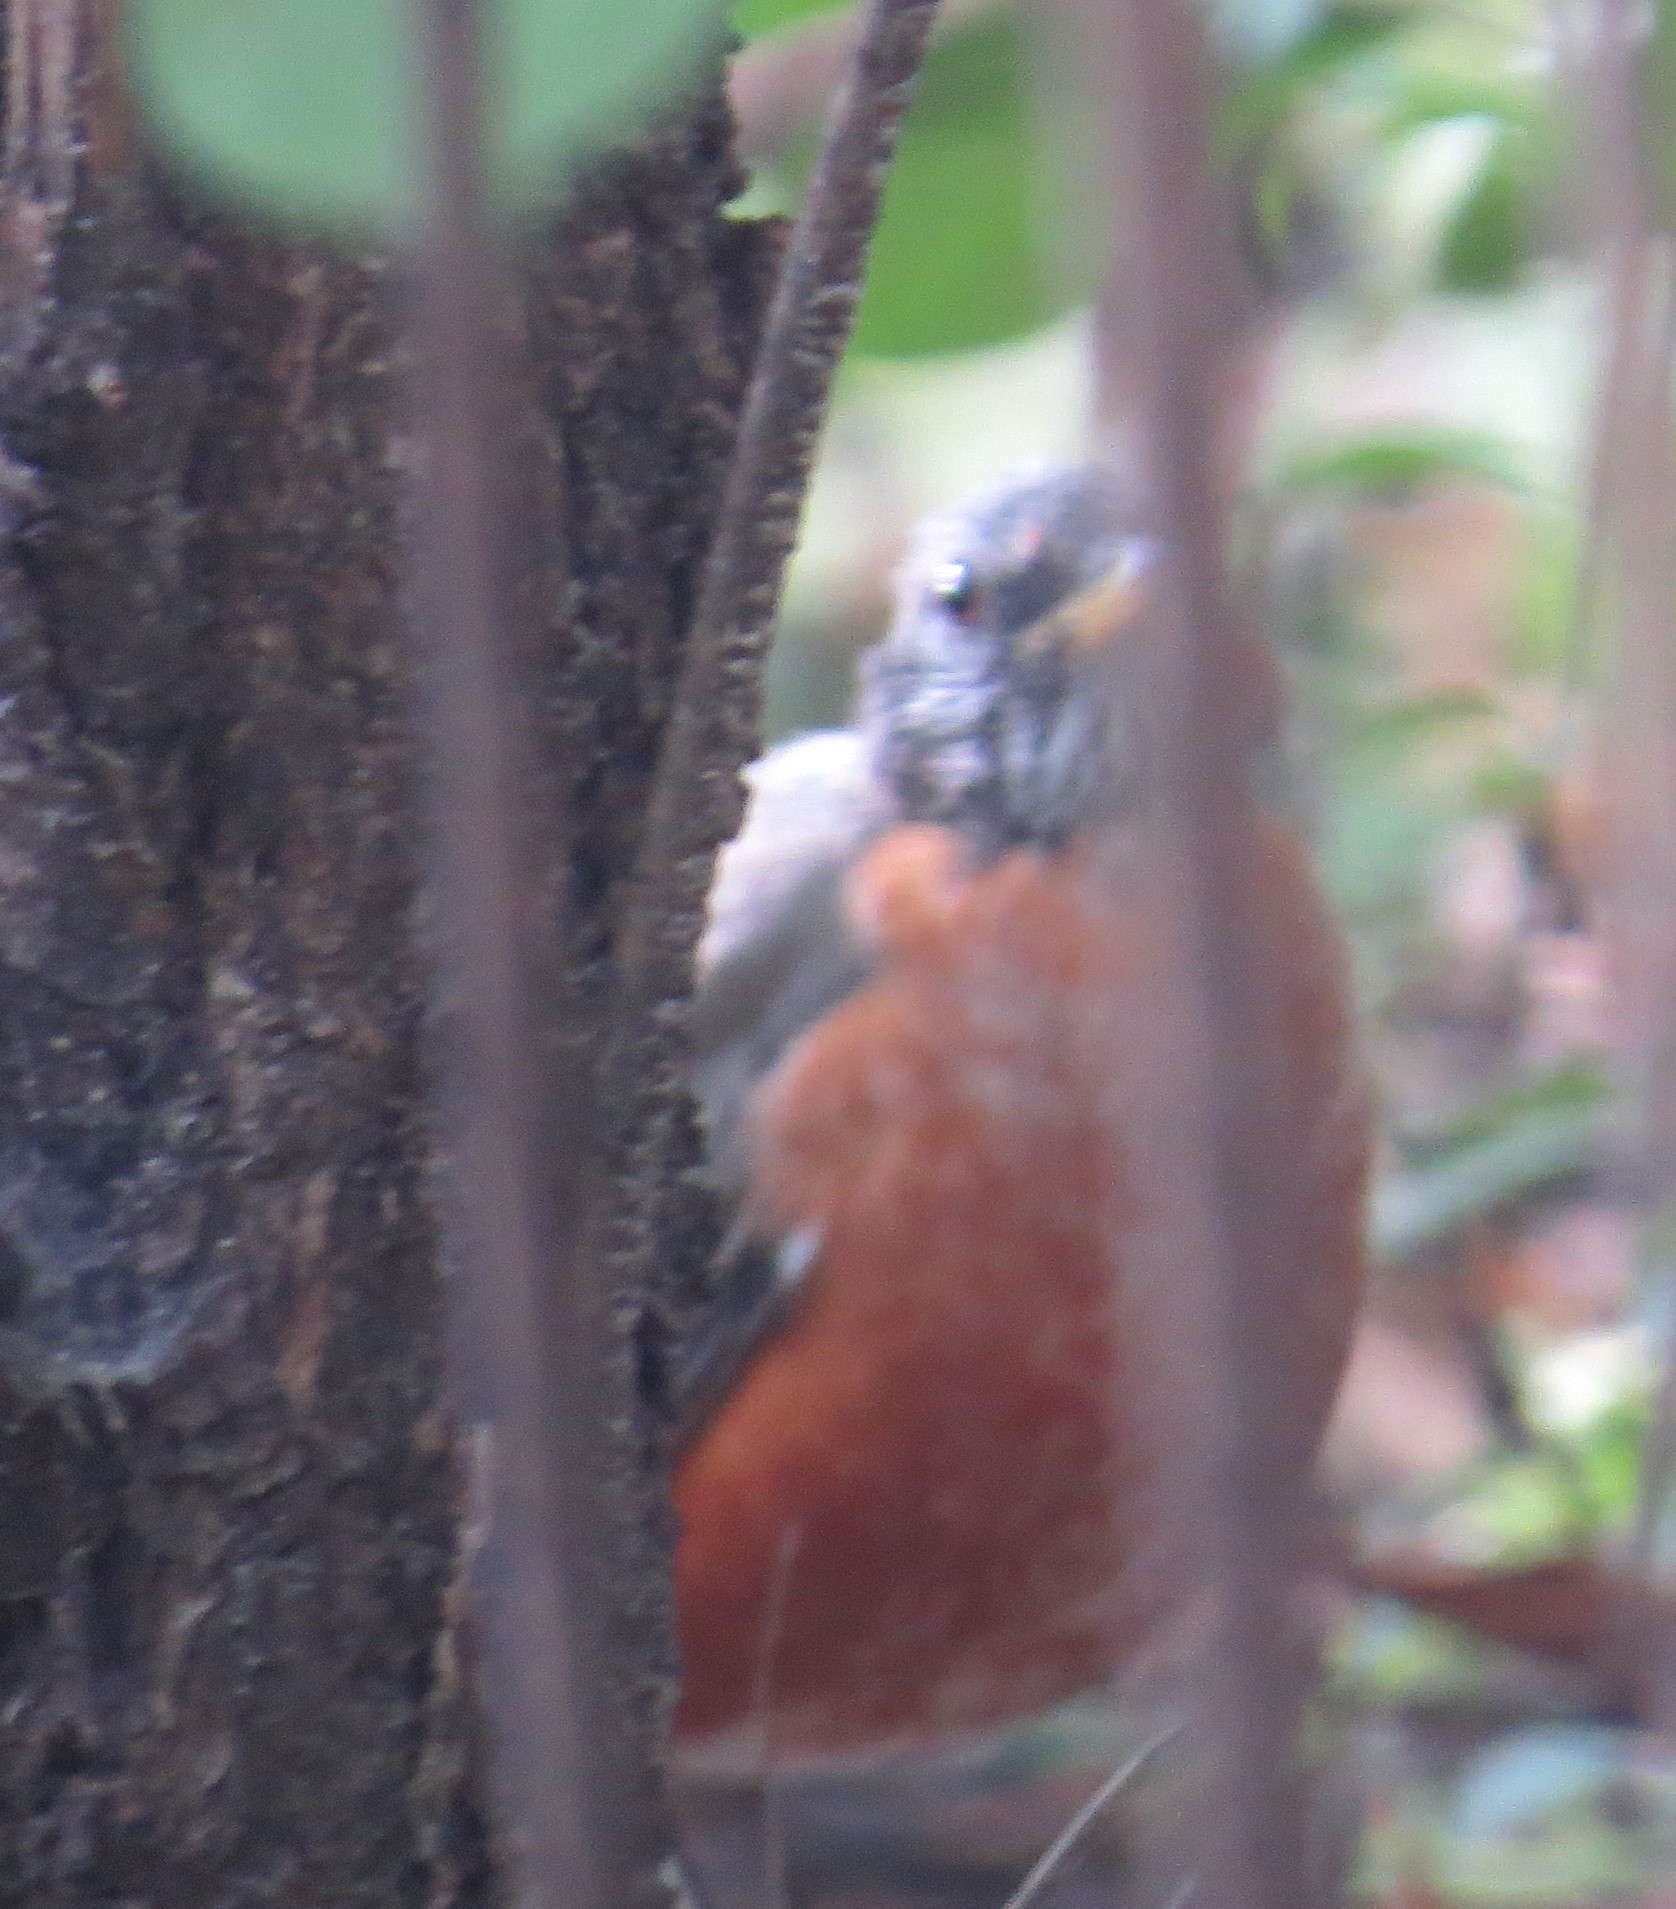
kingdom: Animalia
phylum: Chordata
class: Aves
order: Passeriformes
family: Turdidae
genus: Turdus
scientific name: Turdus migratorius
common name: American robin
